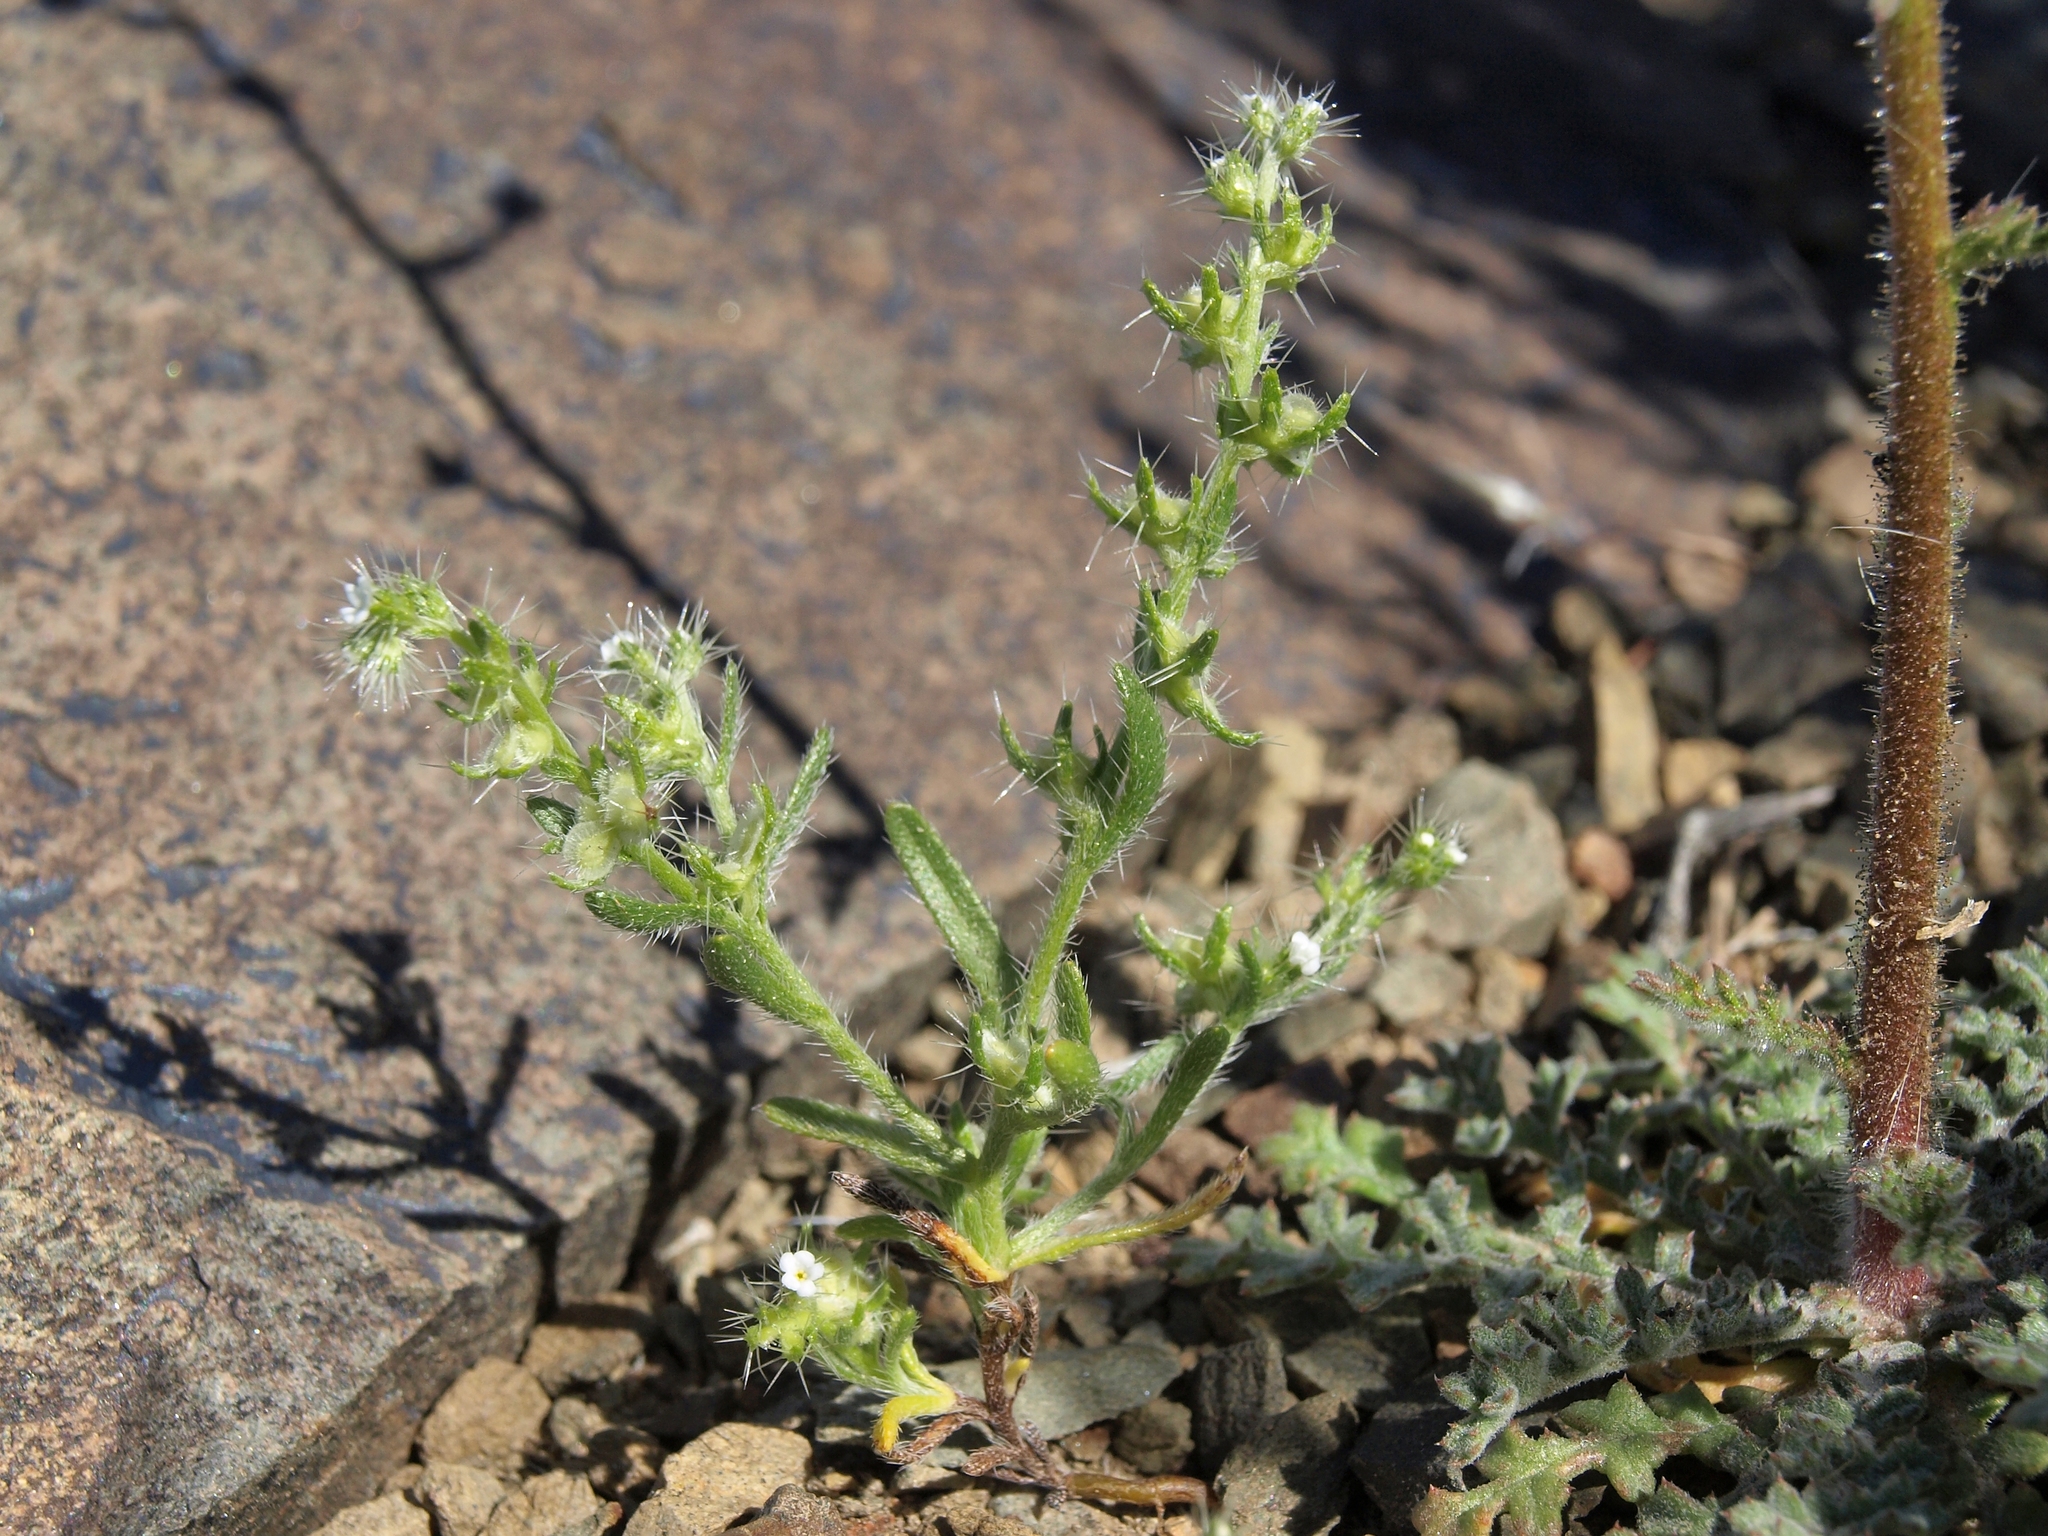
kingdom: Plantae
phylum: Tracheophyta
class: Magnoliopsida
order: Boraginales
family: Boraginaceae
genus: Pectocarya
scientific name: Pectocarya setosa
